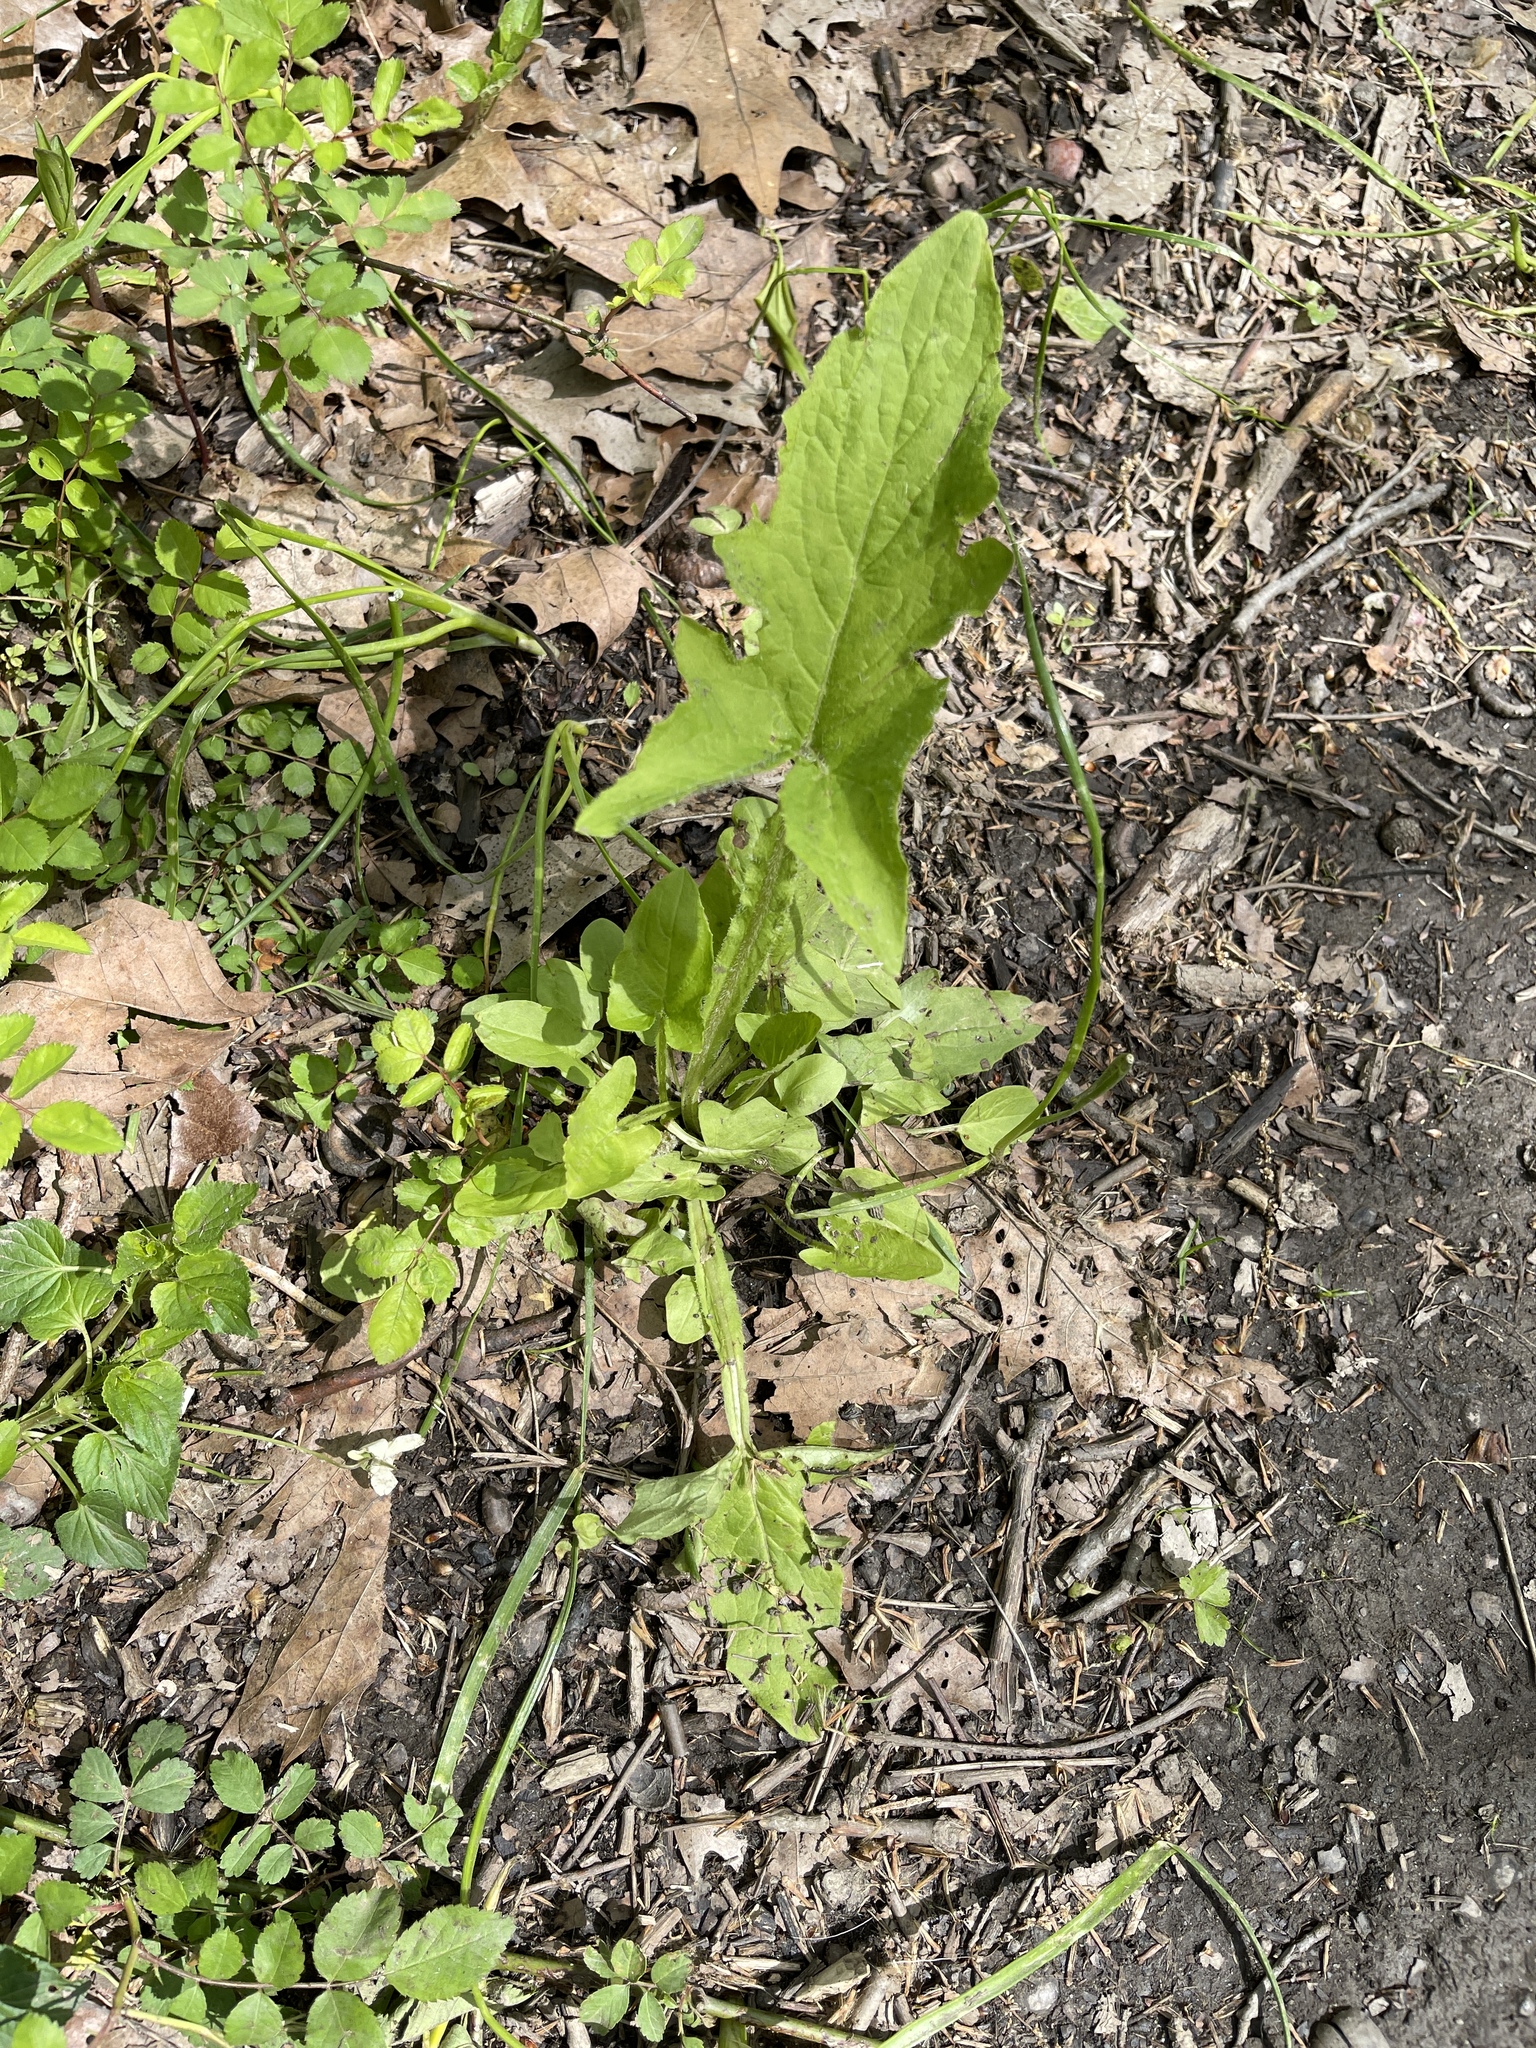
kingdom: Plantae
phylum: Tracheophyta
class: Magnoliopsida
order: Asterales
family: Asteraceae
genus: Nabalus
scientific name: Nabalus crepidineus
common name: Nodding rattlesnakeroot
